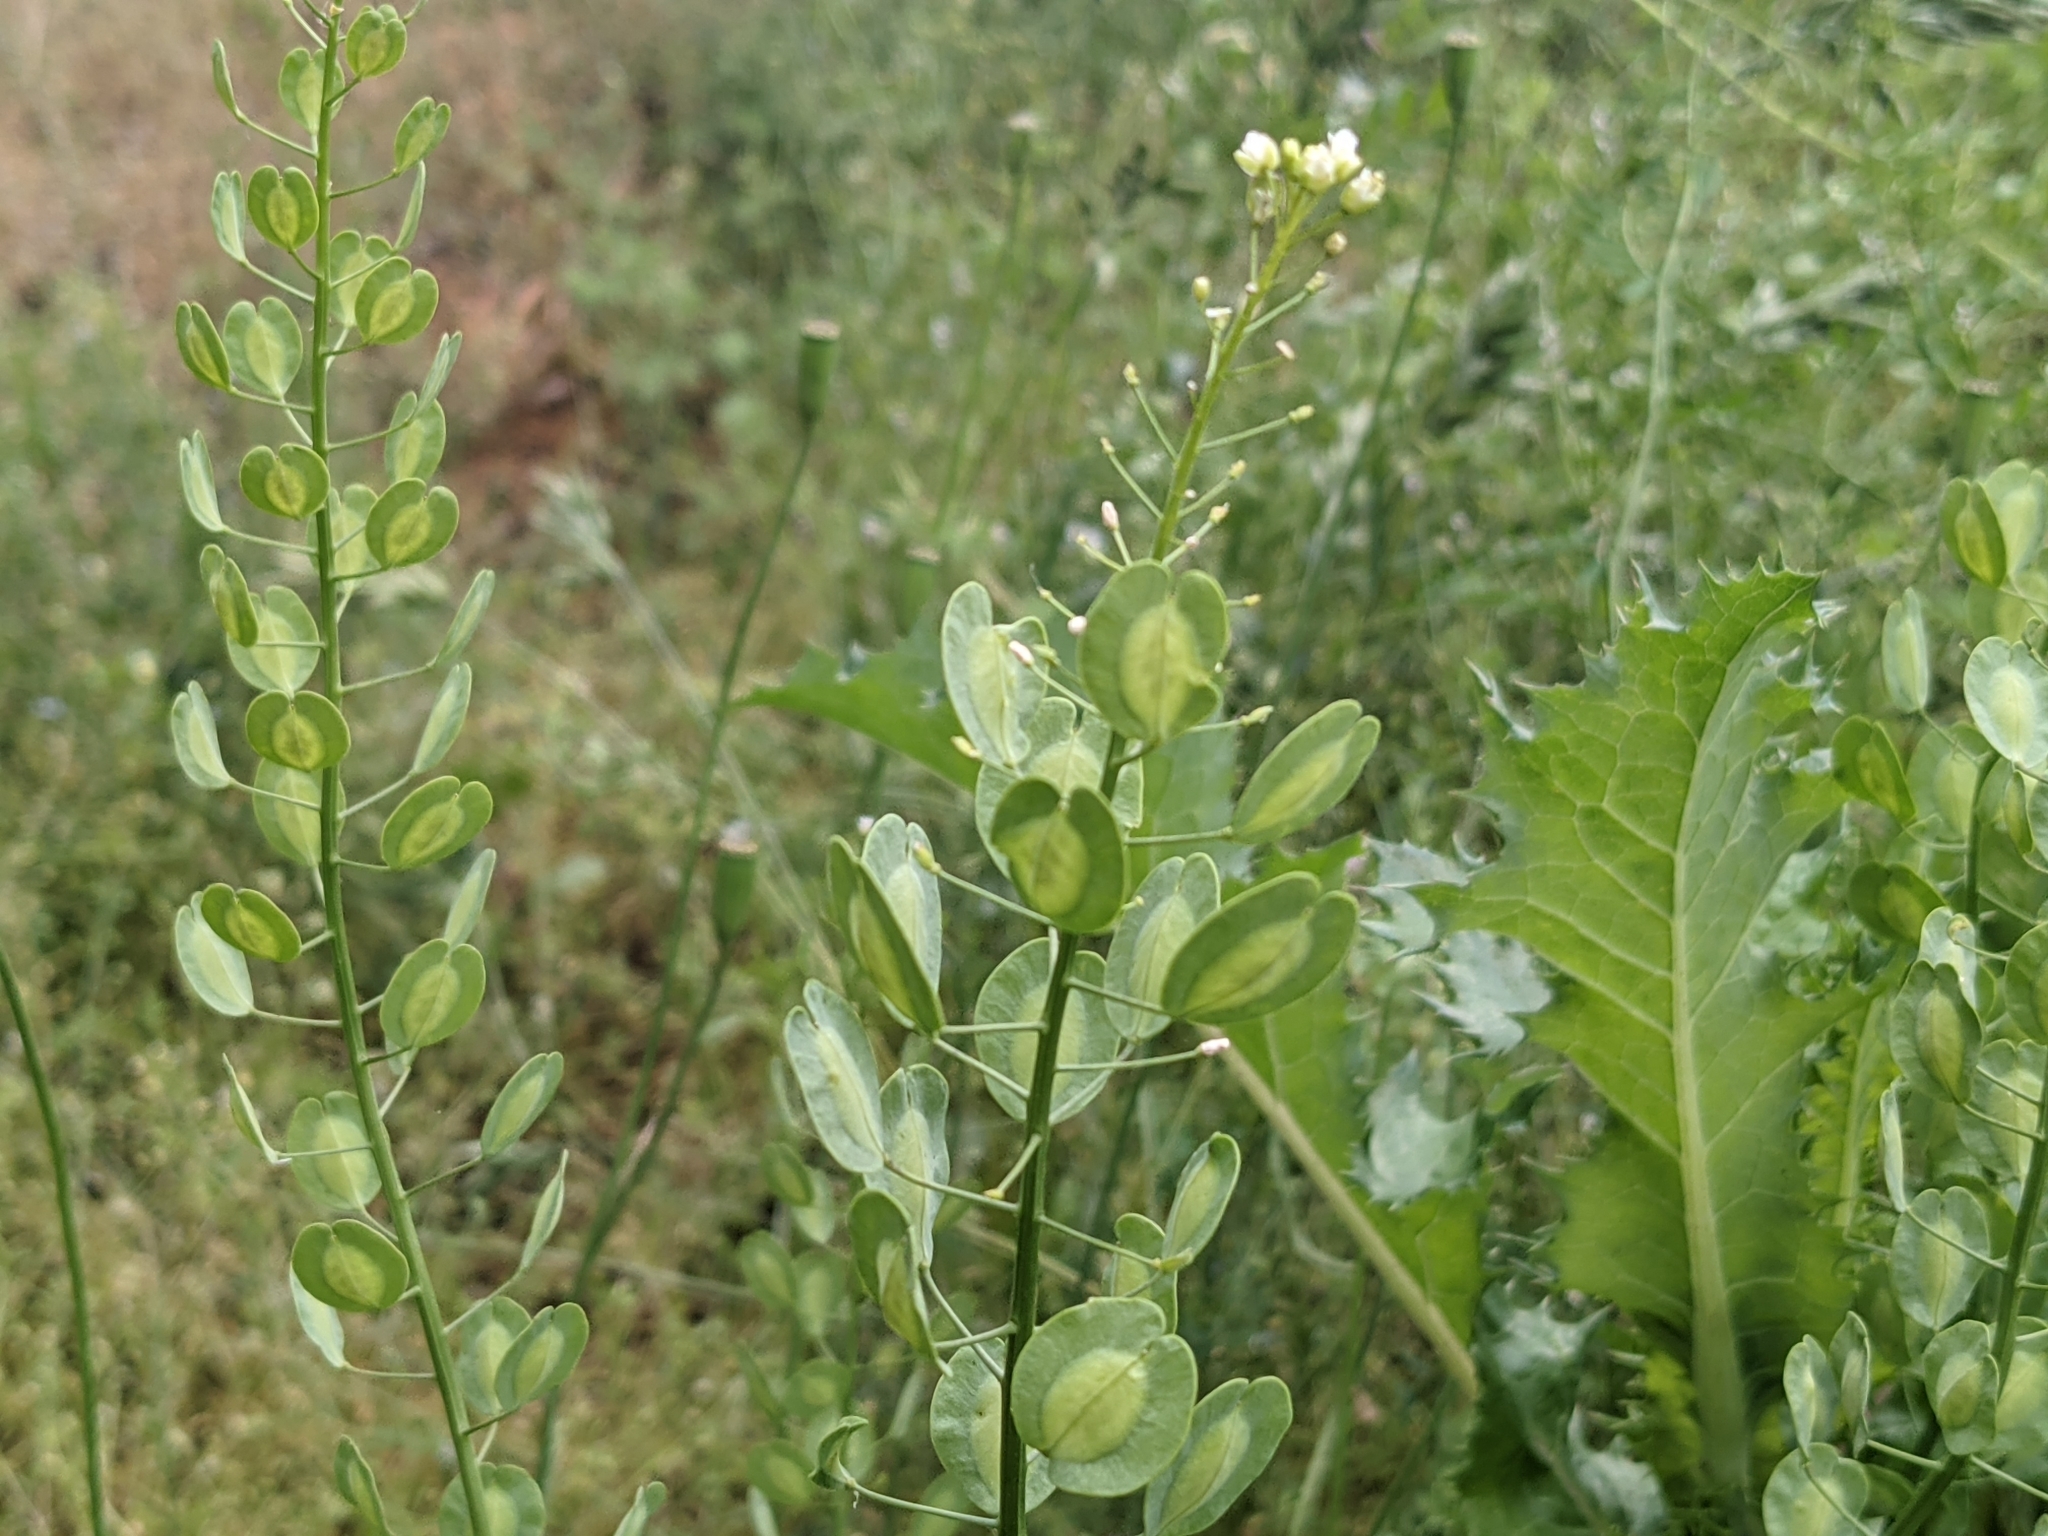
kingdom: Plantae
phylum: Tracheophyta
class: Magnoliopsida
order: Brassicales
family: Brassicaceae
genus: Thlaspi
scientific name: Thlaspi arvense
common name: Field pennycress
